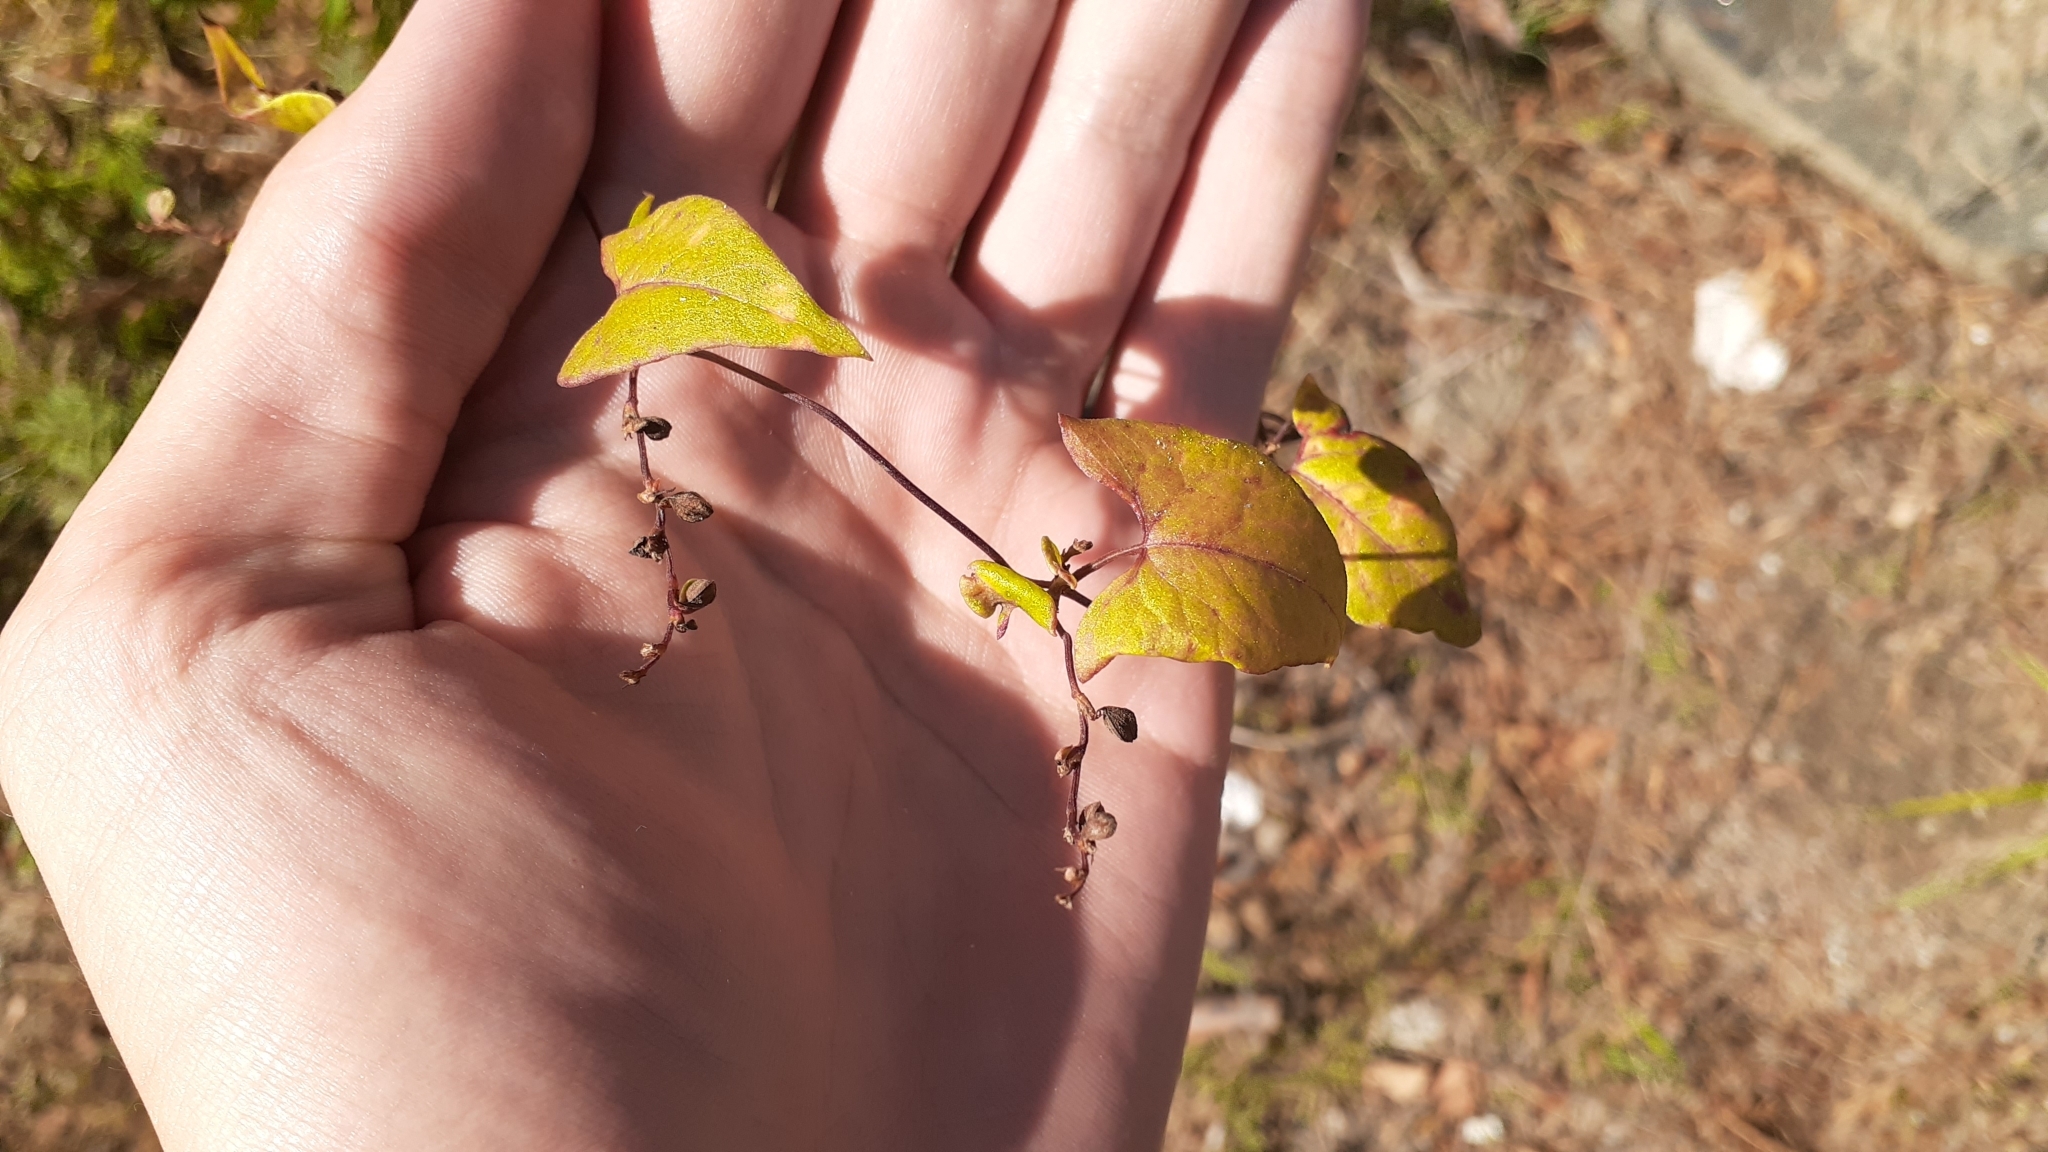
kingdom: Plantae
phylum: Tracheophyta
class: Magnoliopsida
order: Caryophyllales
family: Polygonaceae
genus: Fallopia
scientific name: Fallopia convolvulus
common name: Black bindweed
